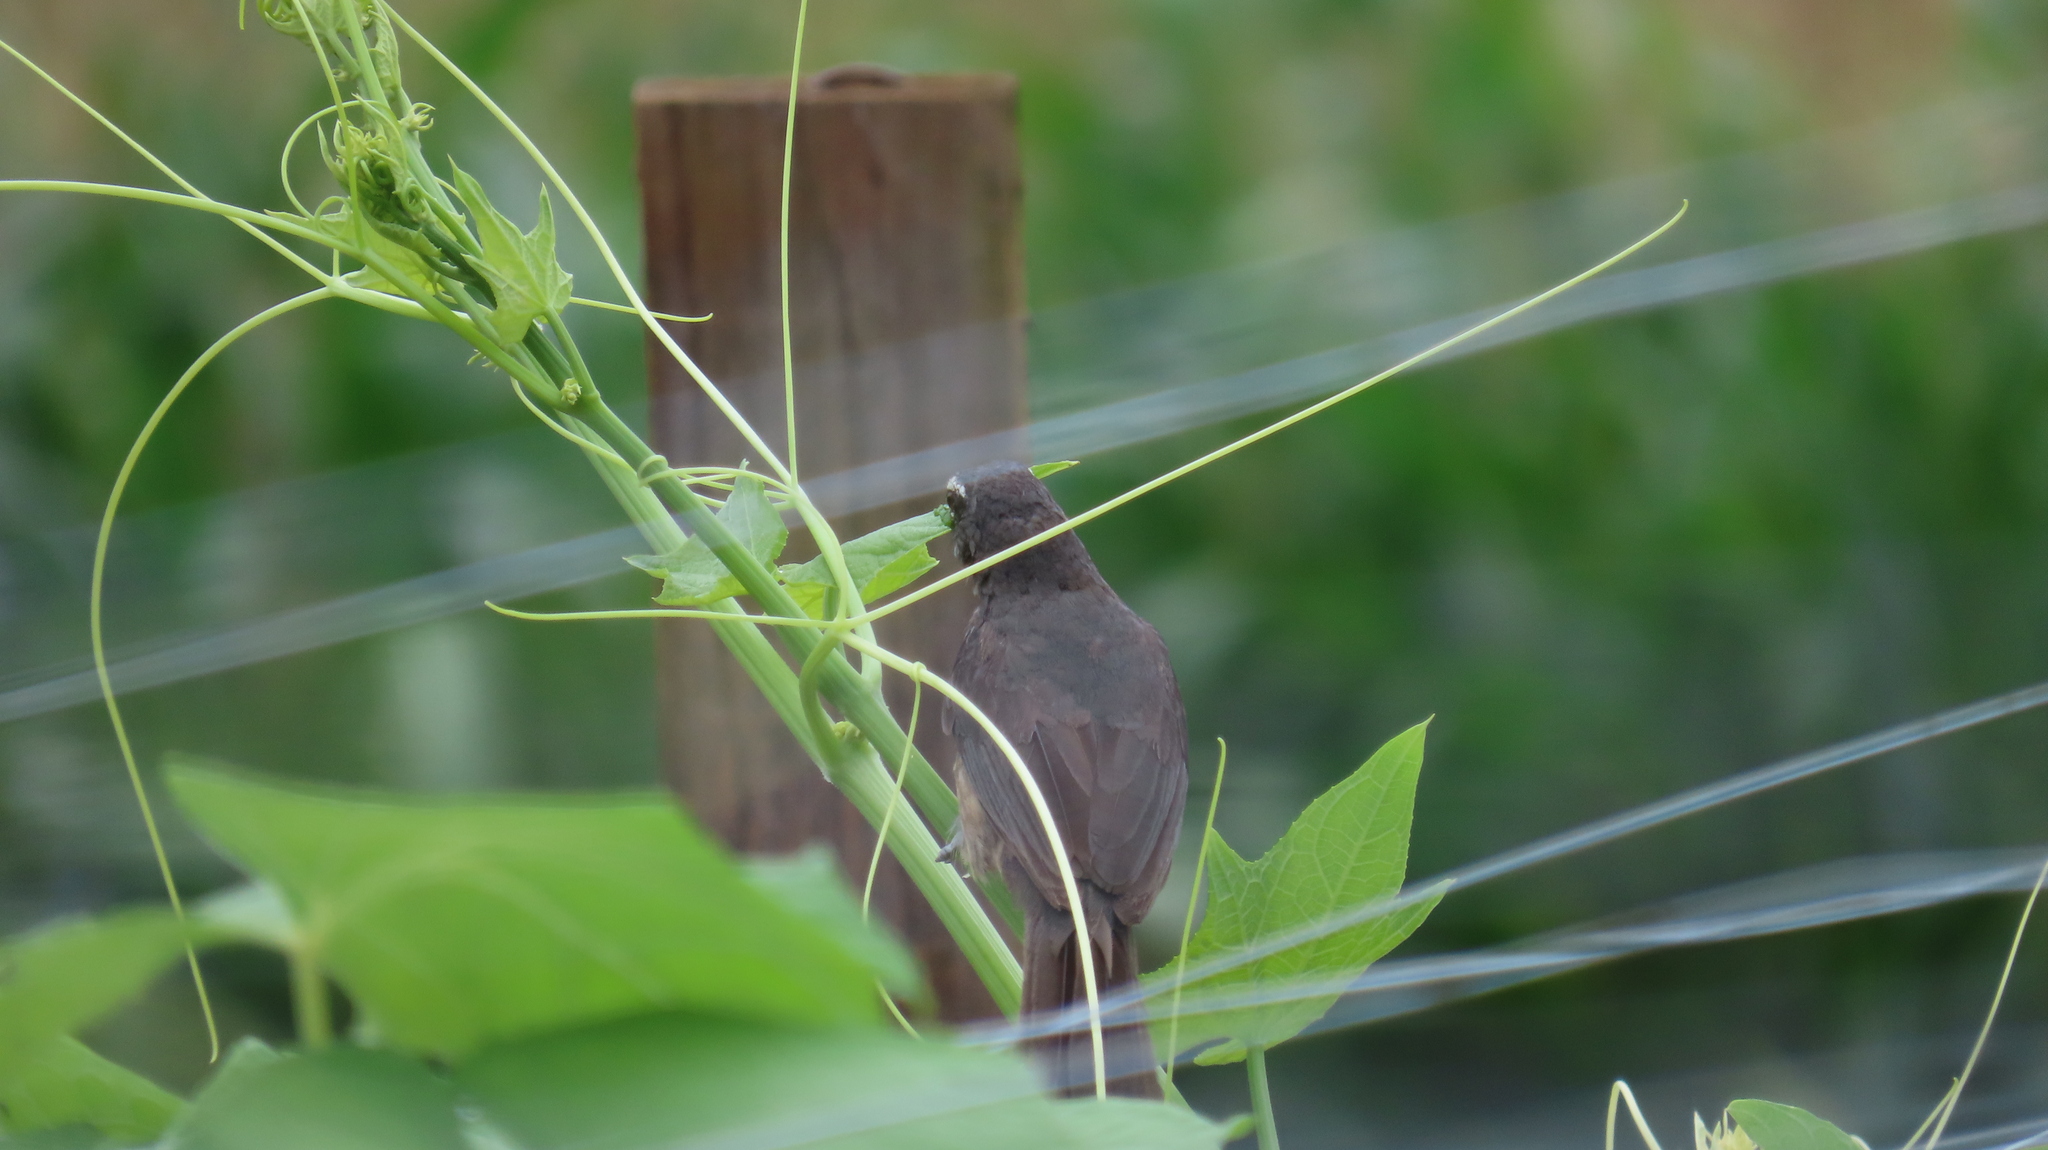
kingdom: Animalia
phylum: Chordata
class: Aves
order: Passeriformes
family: Thraupidae
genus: Saltator
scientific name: Saltator grandis
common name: Cinnamon-bellied saltator
